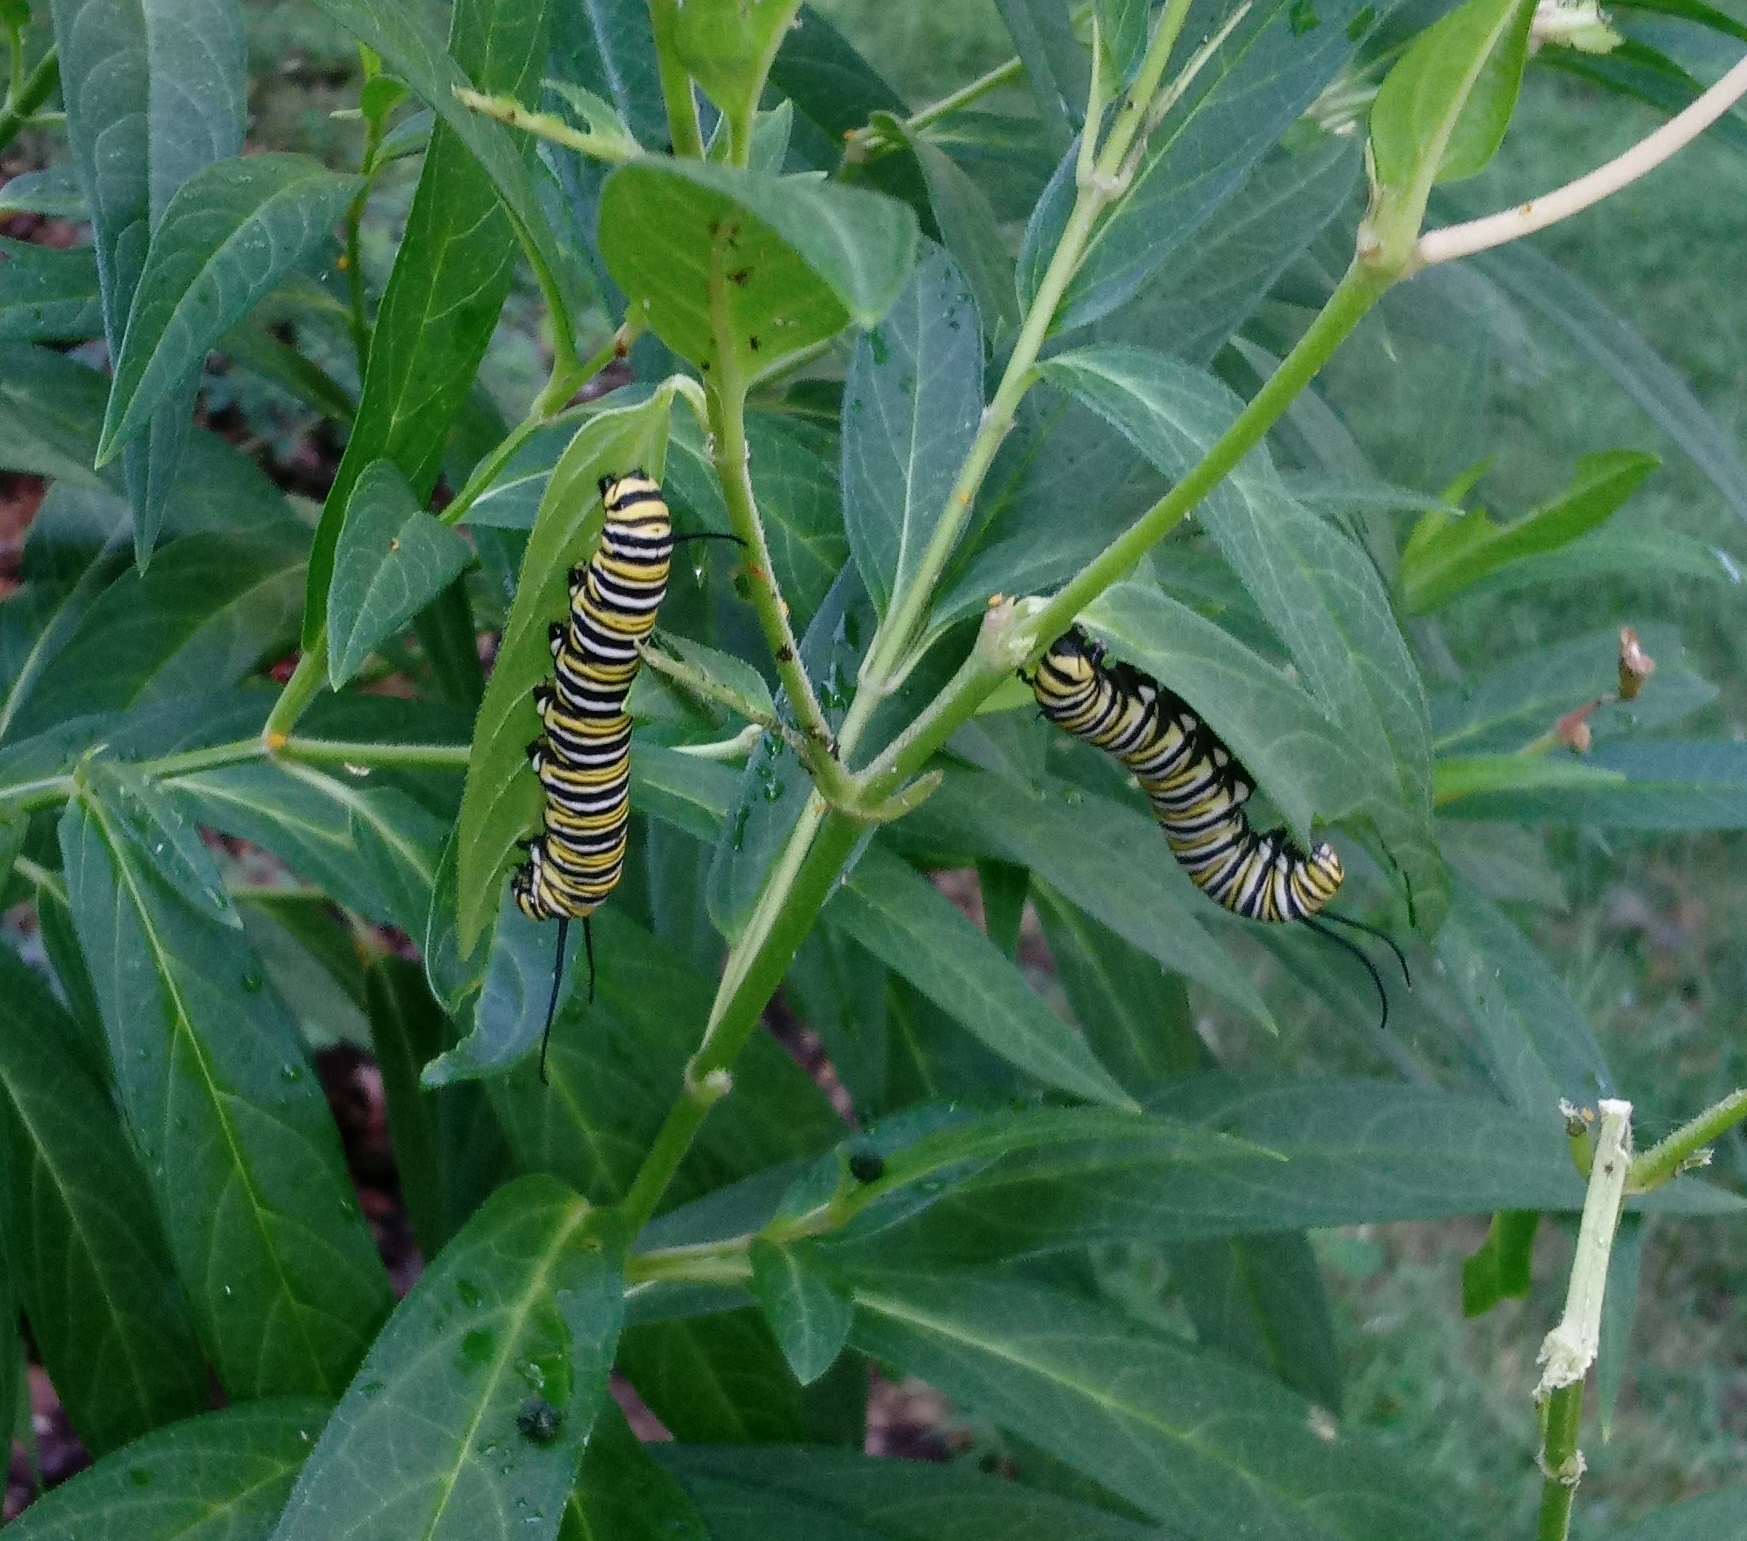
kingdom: Animalia
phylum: Arthropoda
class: Insecta
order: Lepidoptera
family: Nymphalidae
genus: Danaus
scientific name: Danaus plexippus
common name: Monarch
